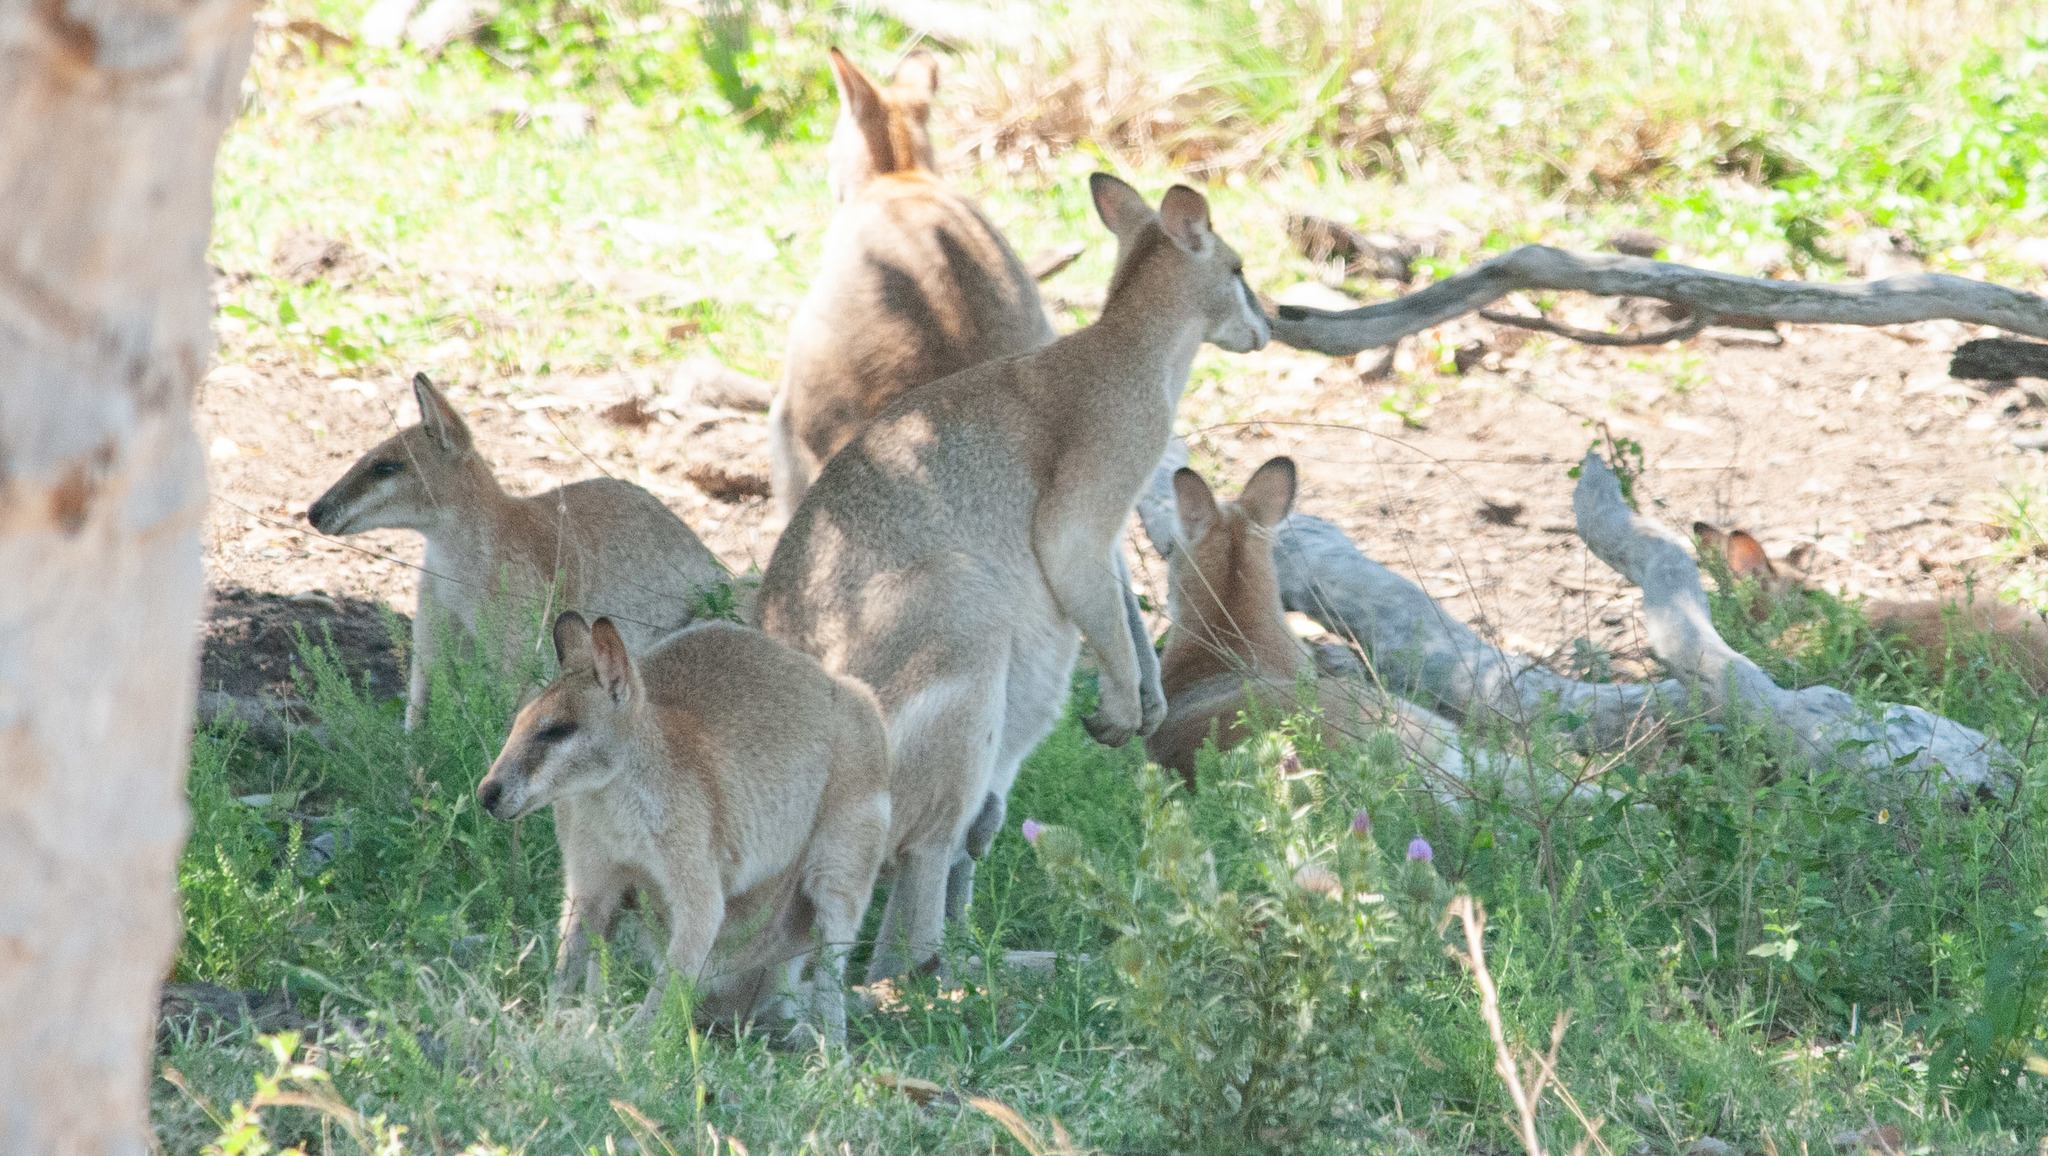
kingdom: Animalia
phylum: Chordata
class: Mammalia
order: Diprotodontia
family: Macropodidae
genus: Macropus
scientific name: Macropus agilis
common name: Agile wallaby
